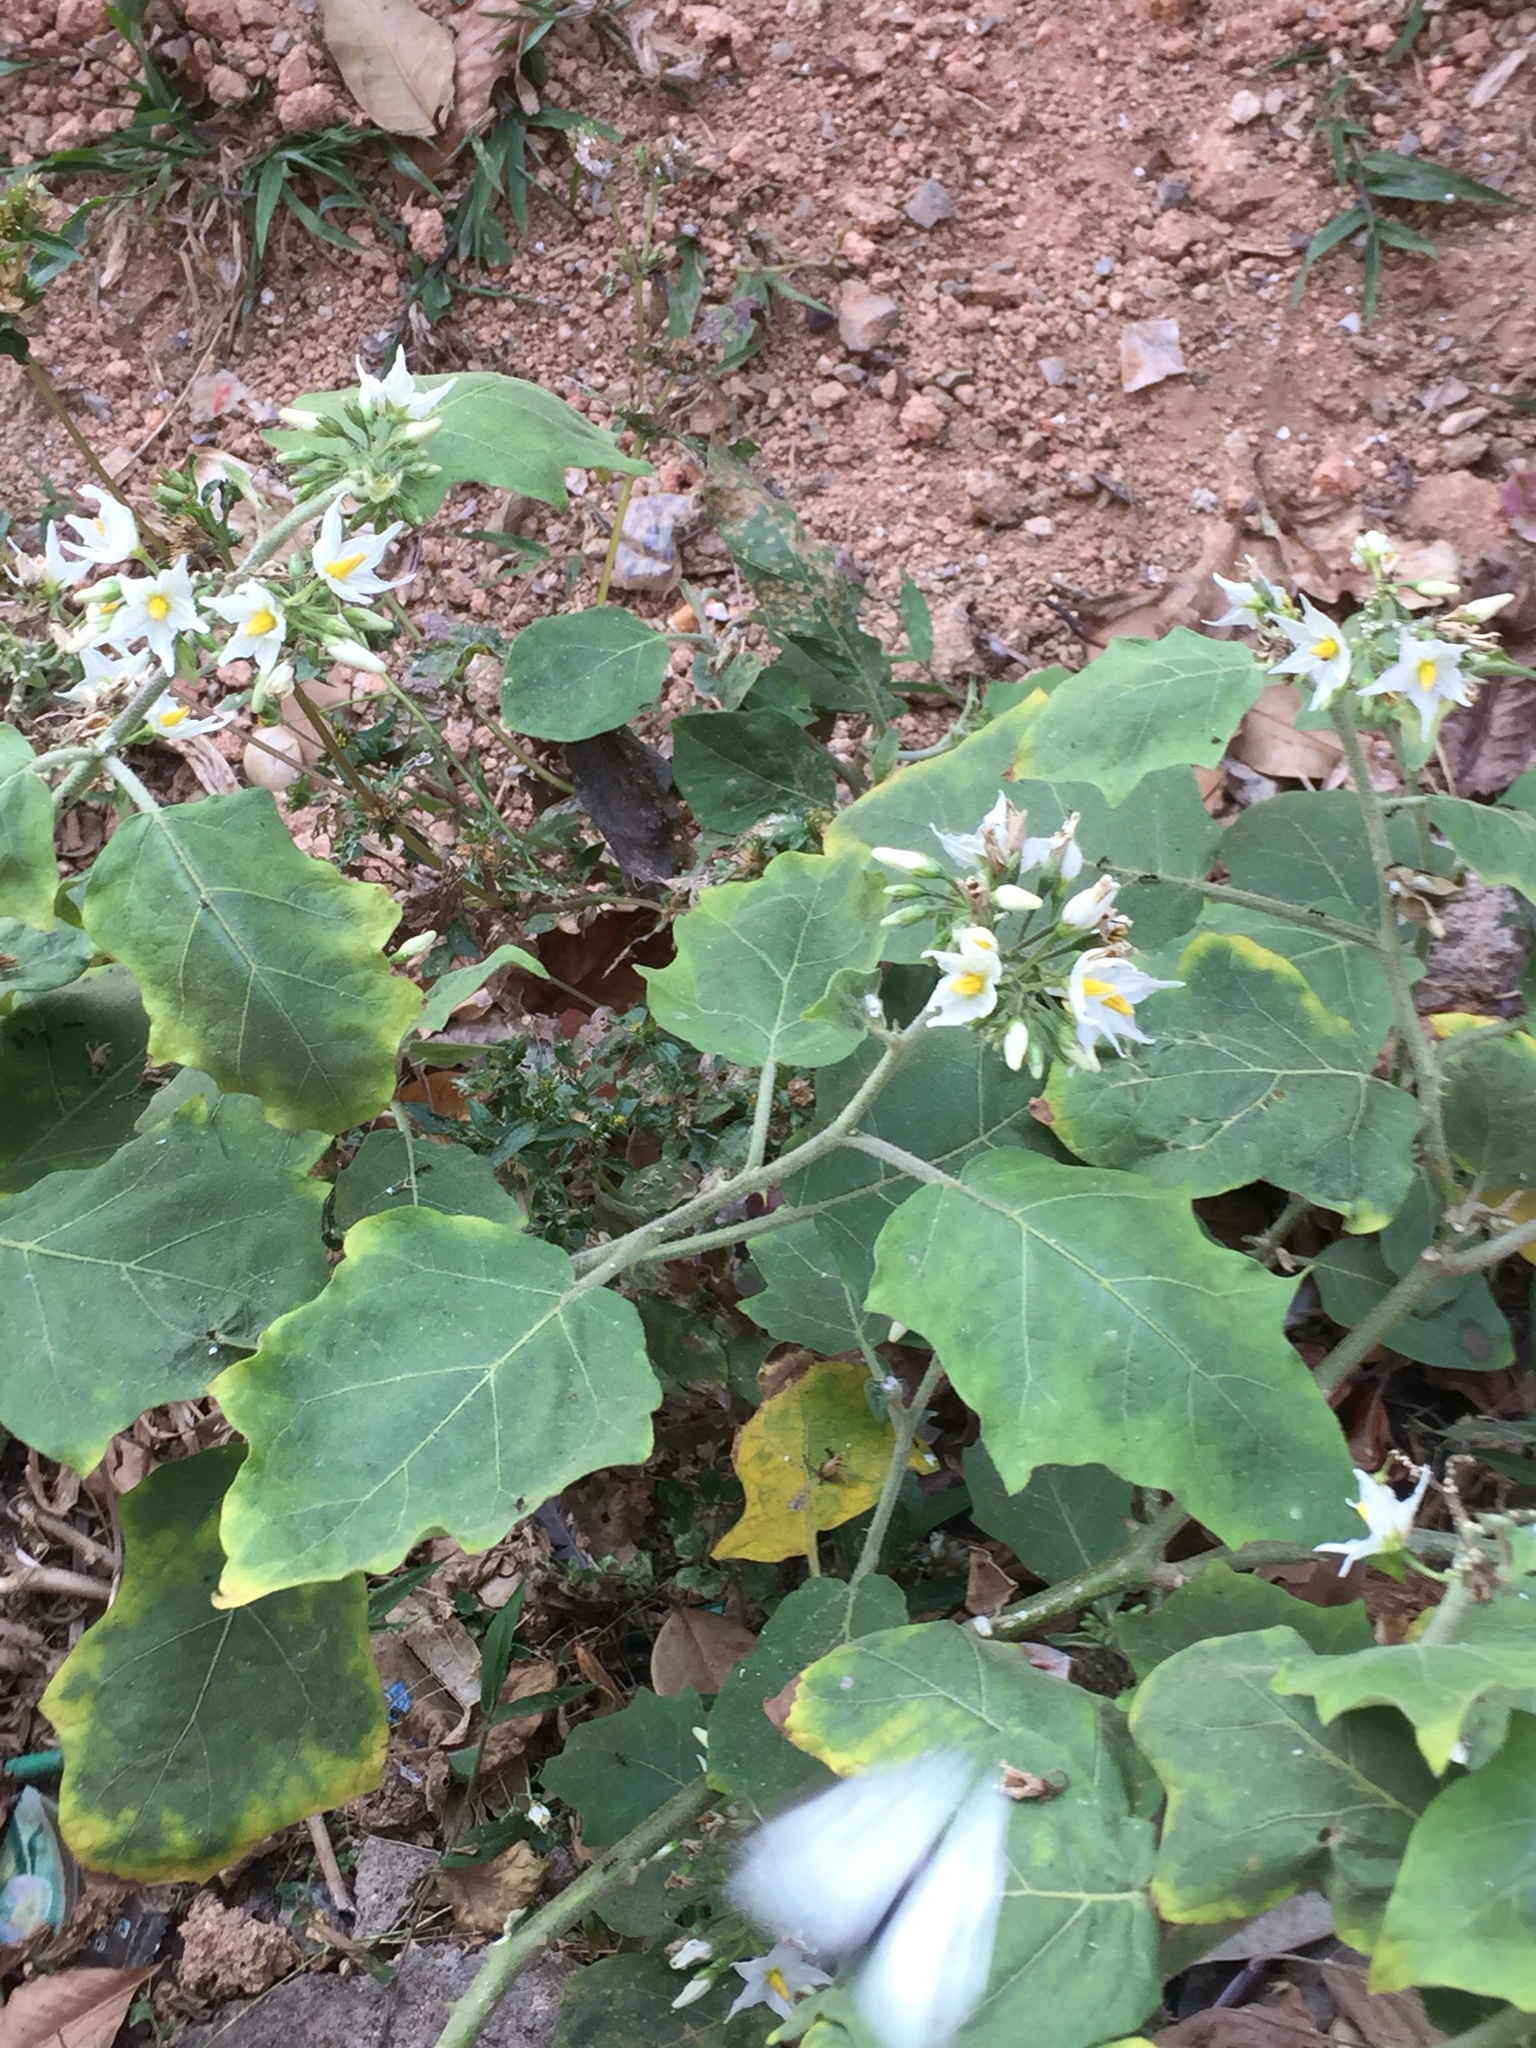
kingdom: Plantae
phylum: Tracheophyta
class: Magnoliopsida
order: Solanales
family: Solanaceae
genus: Solanum
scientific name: Solanum torvum
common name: Turkey berry
